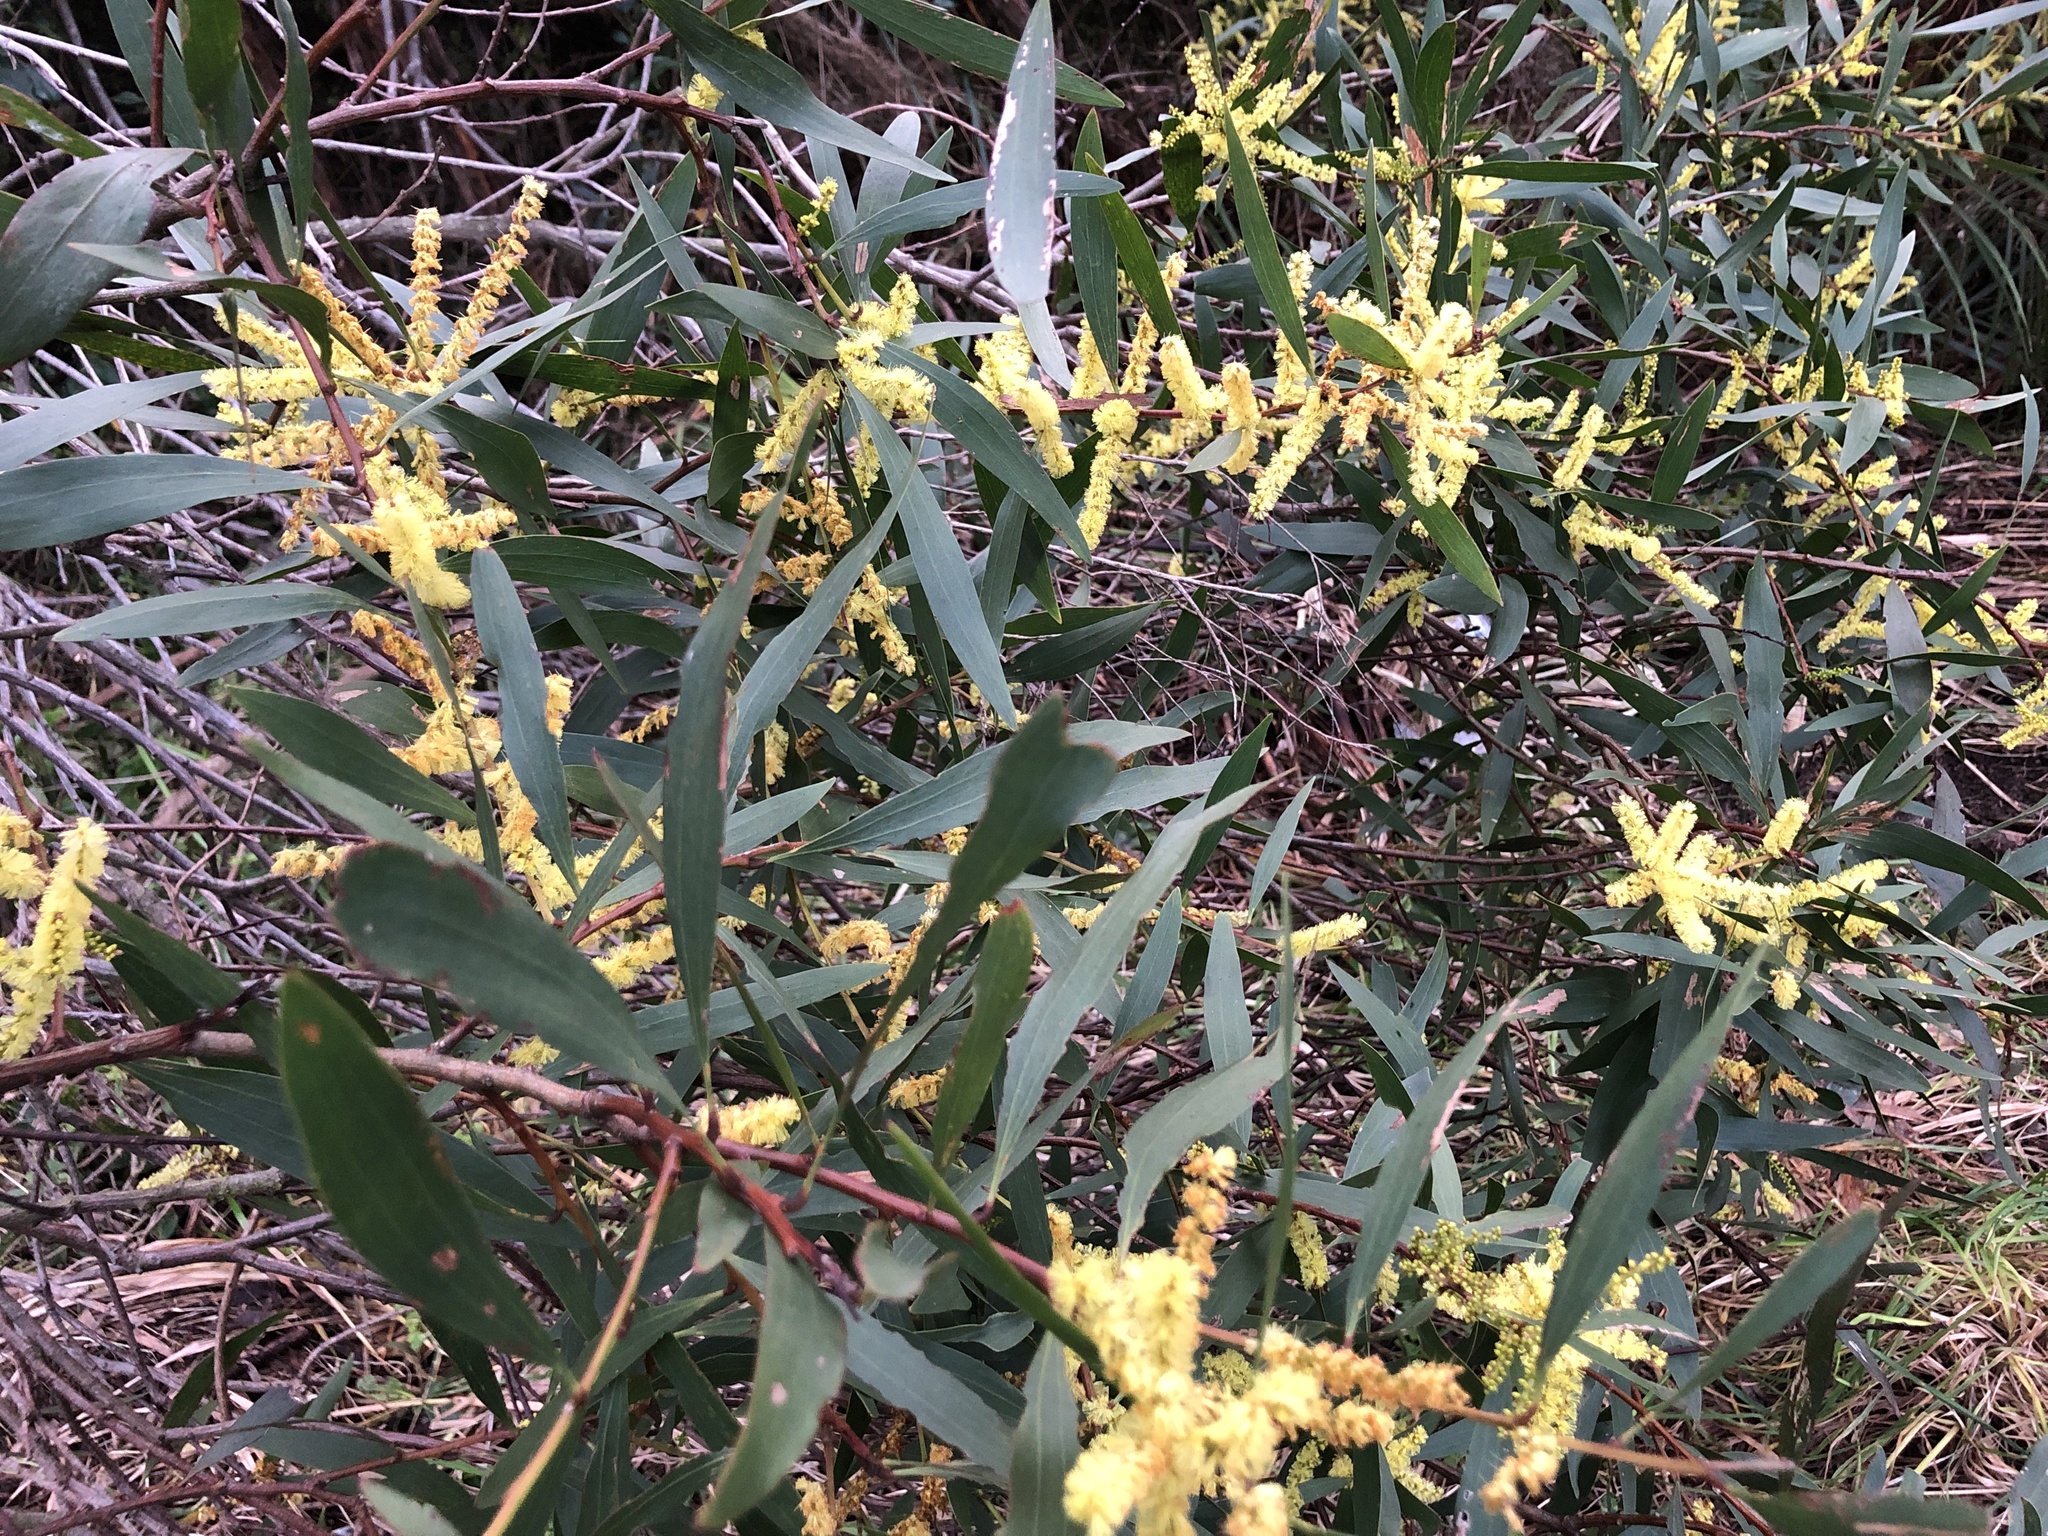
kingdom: Plantae
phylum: Tracheophyta
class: Magnoliopsida
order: Fabales
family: Fabaceae
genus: Acacia
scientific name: Acacia longifolia
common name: Sydney golden wattle
